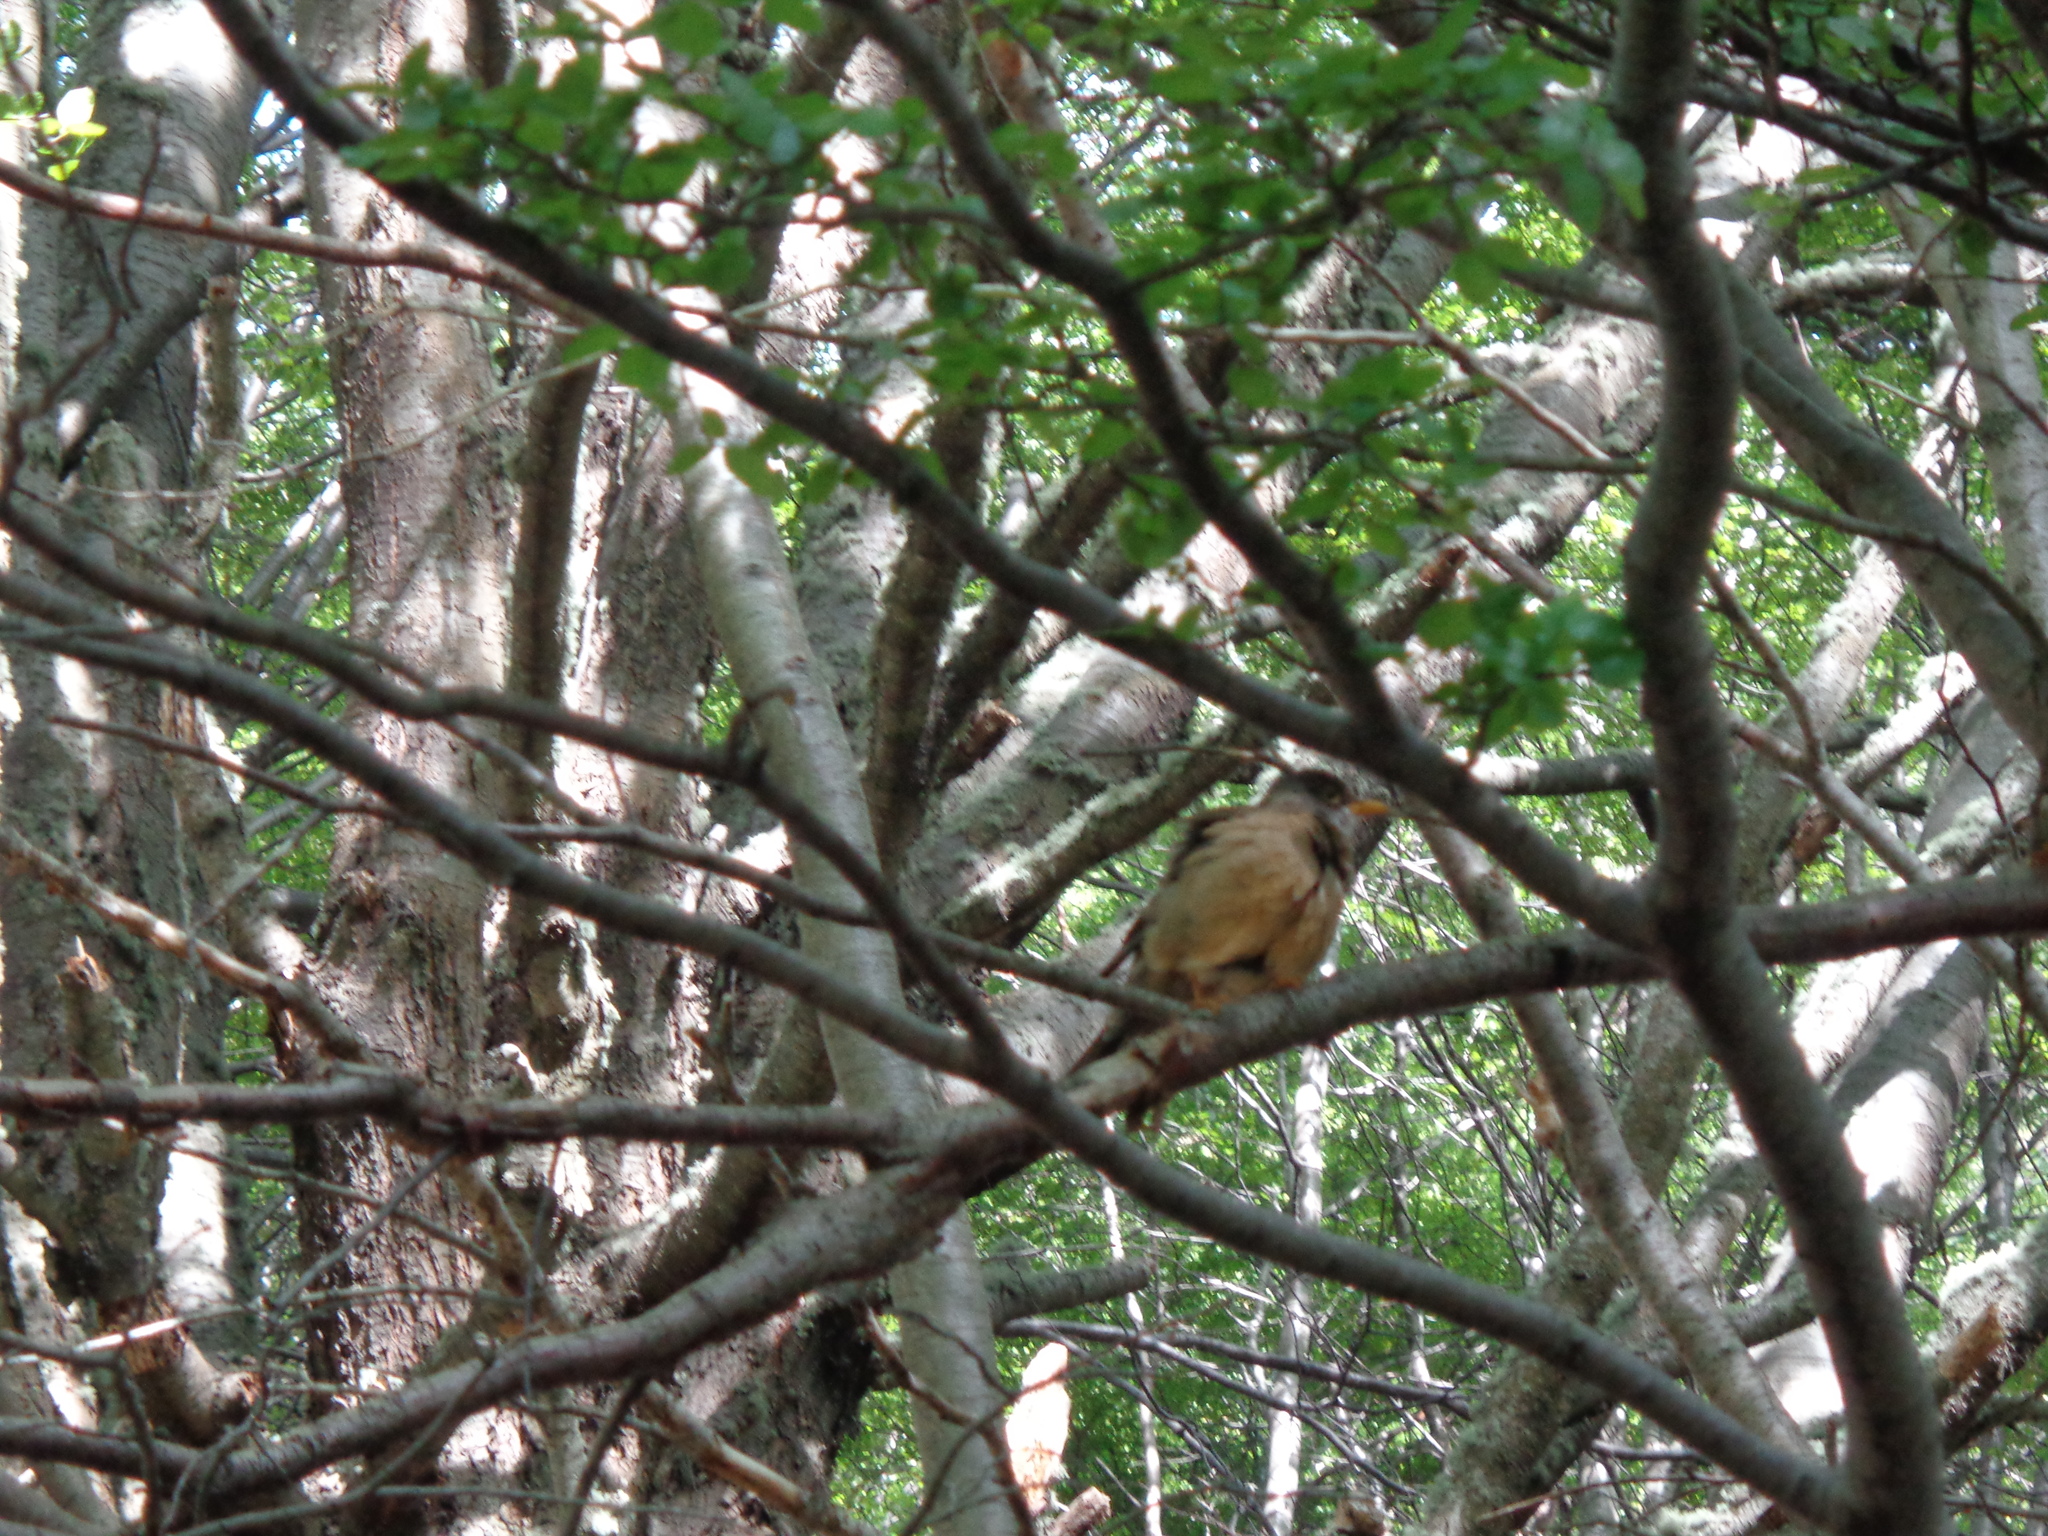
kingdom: Animalia
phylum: Chordata
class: Aves
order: Passeriformes
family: Turdidae
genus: Turdus
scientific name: Turdus falcklandii
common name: Austral thrush
